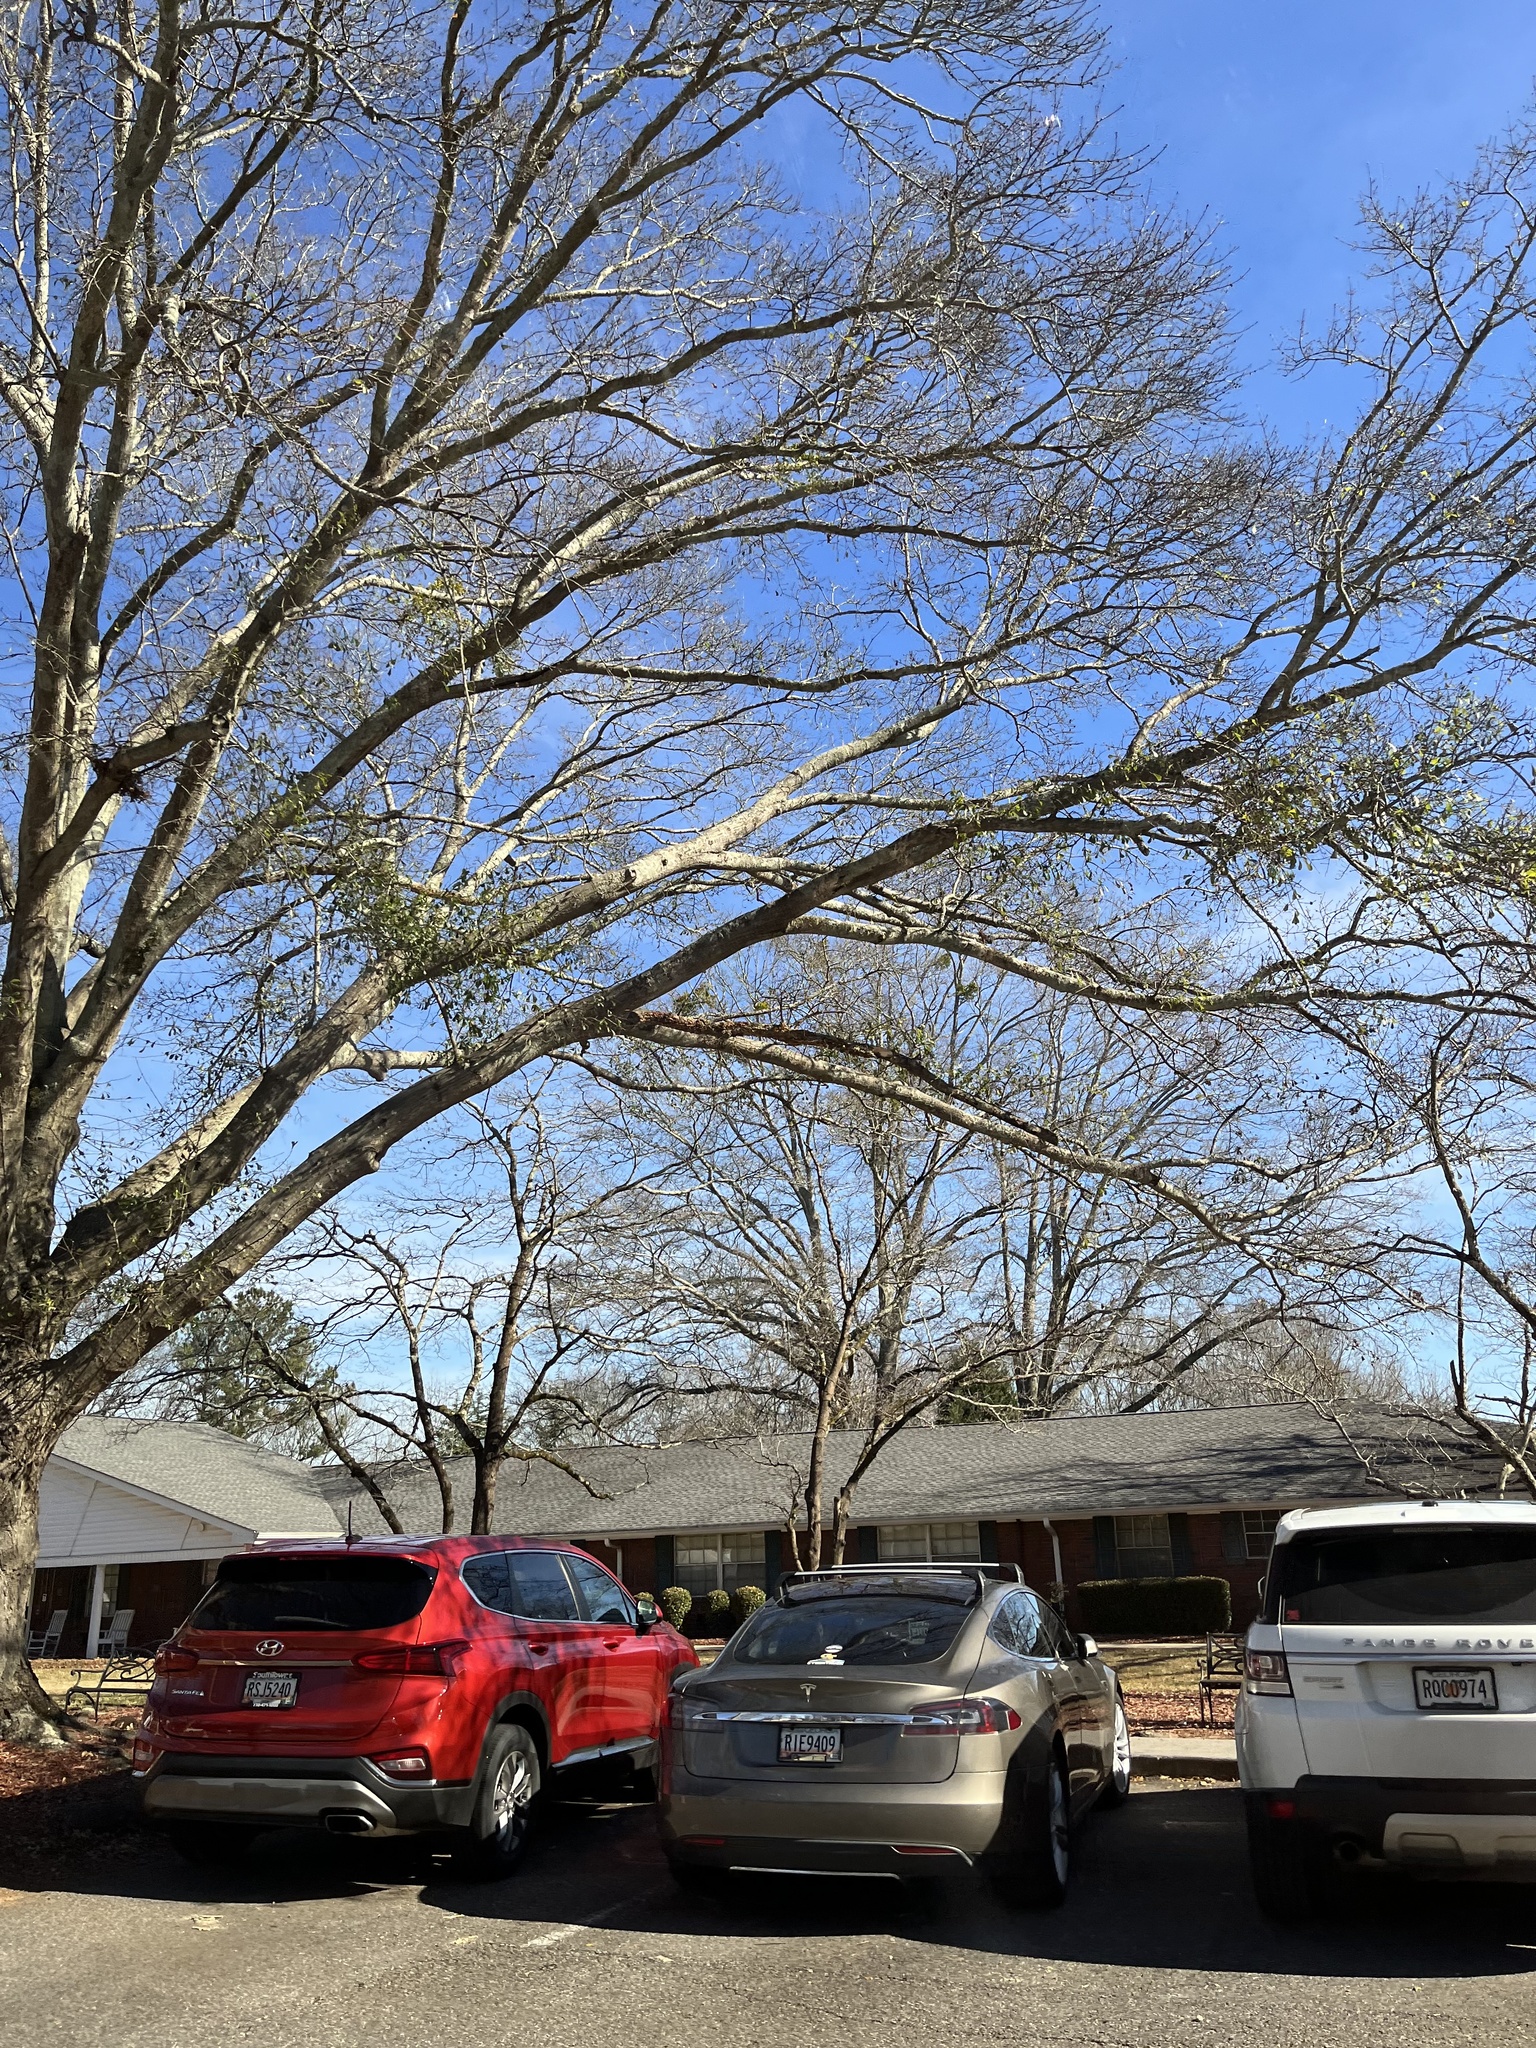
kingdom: Plantae
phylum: Tracheophyta
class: Magnoliopsida
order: Santalales
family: Viscaceae
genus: Phoradendron
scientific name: Phoradendron leucarpum
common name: Pacific mistletoe
